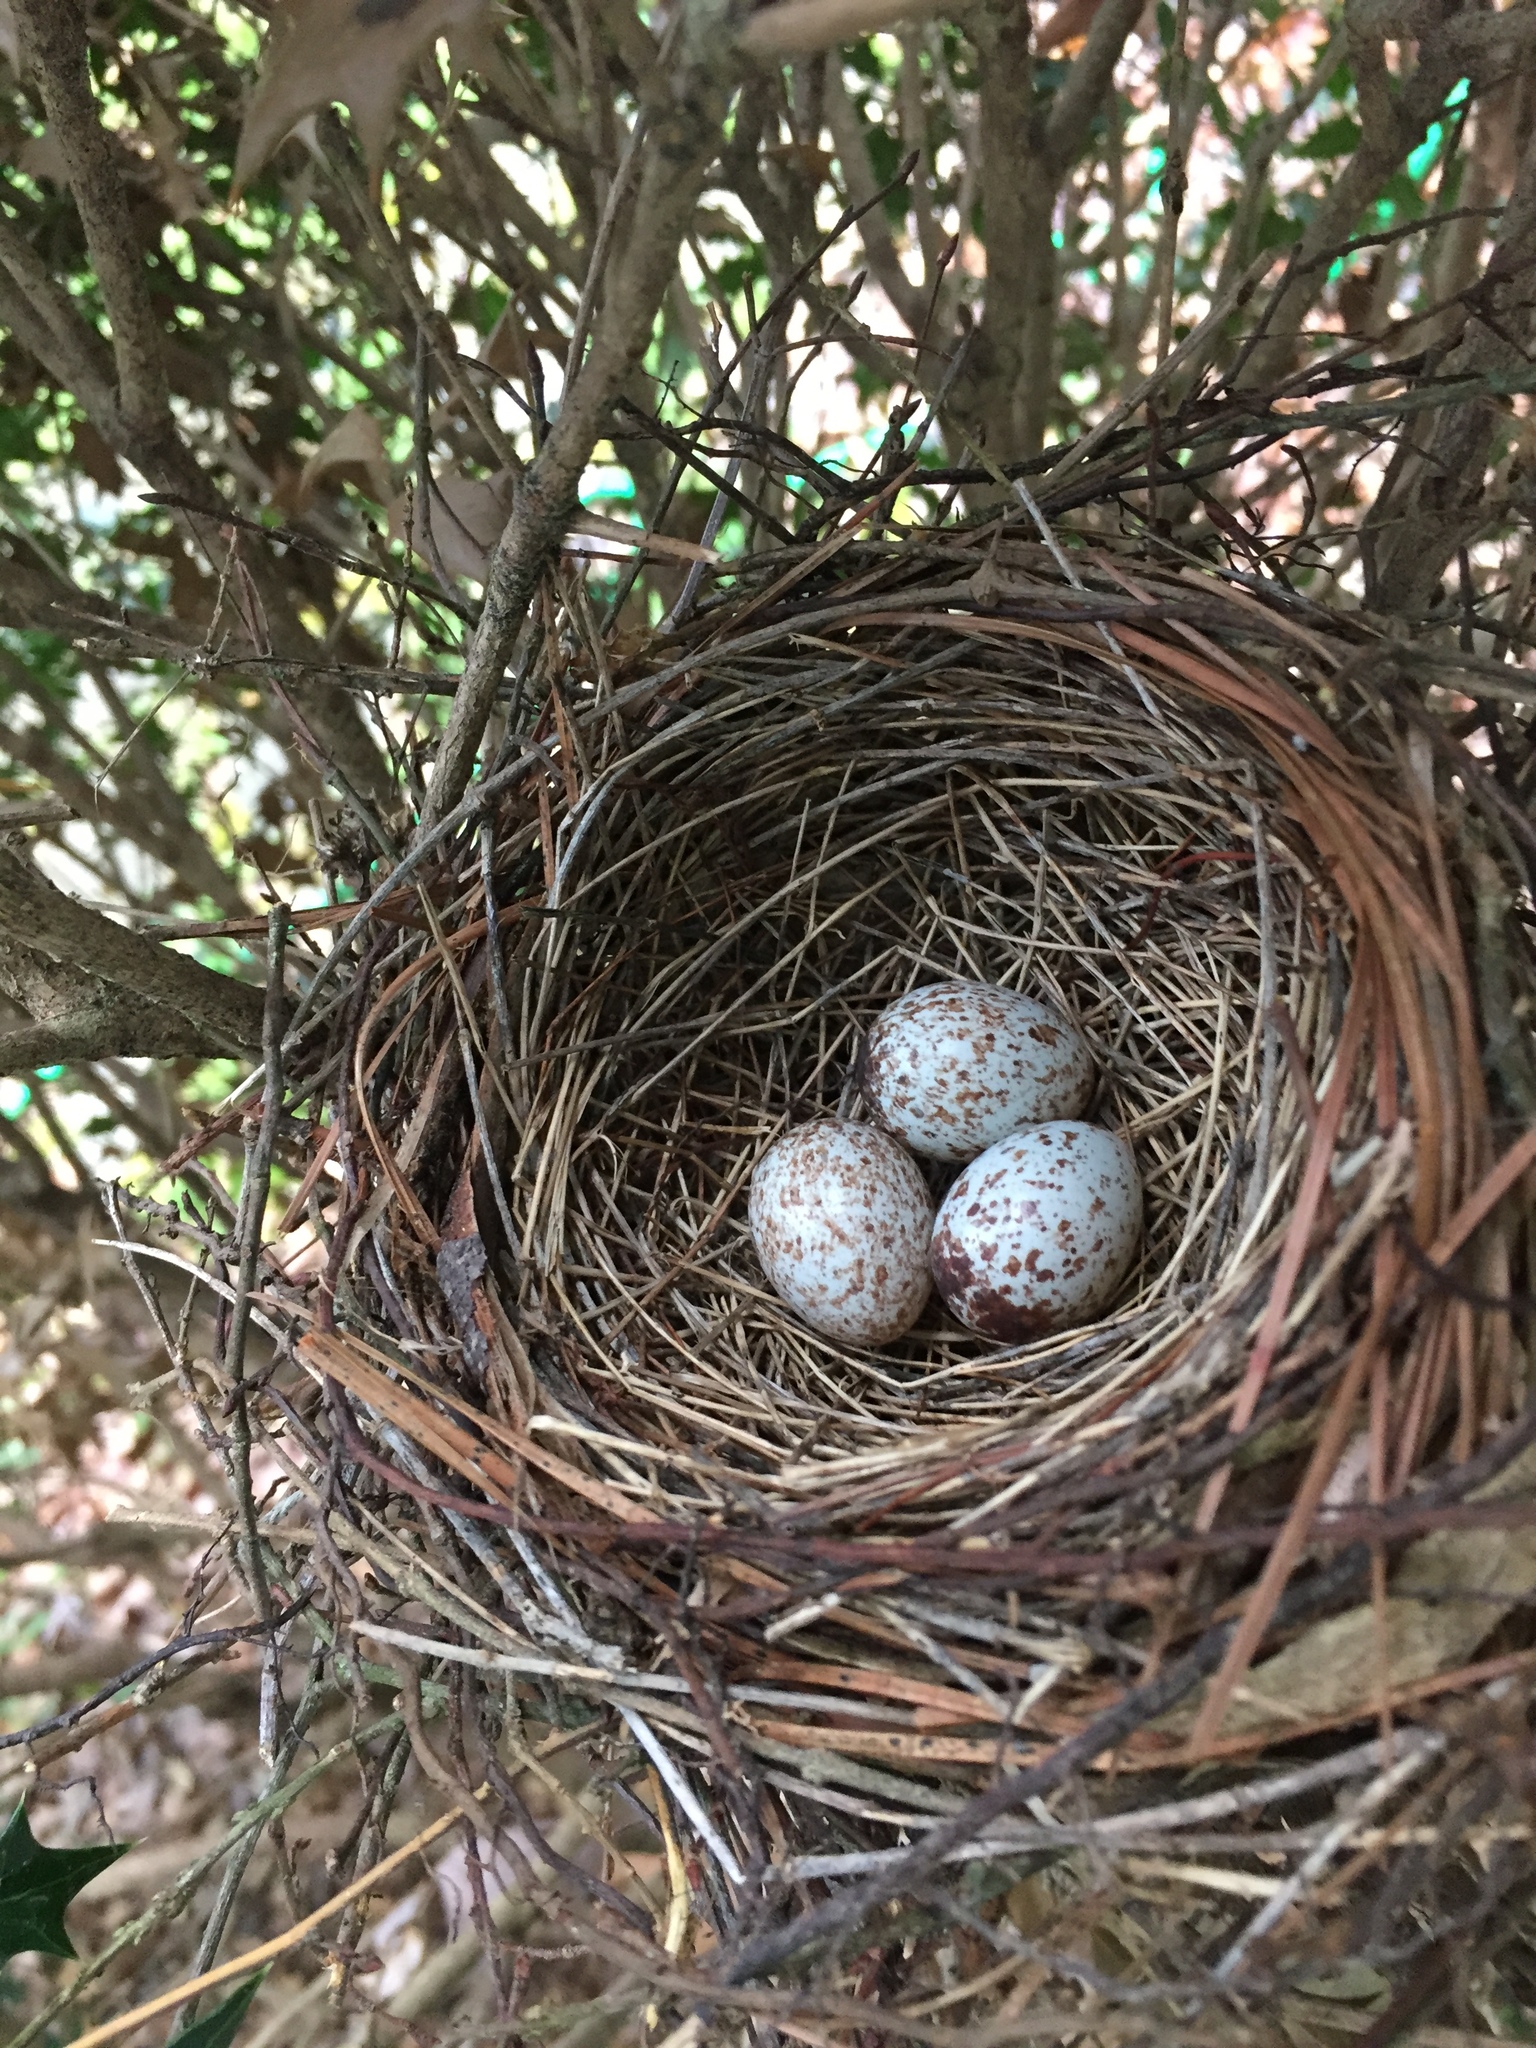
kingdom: Animalia
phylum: Chordata
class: Aves
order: Passeriformes
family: Cardinalidae
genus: Cardinalis
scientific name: Cardinalis cardinalis
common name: Northern cardinal
